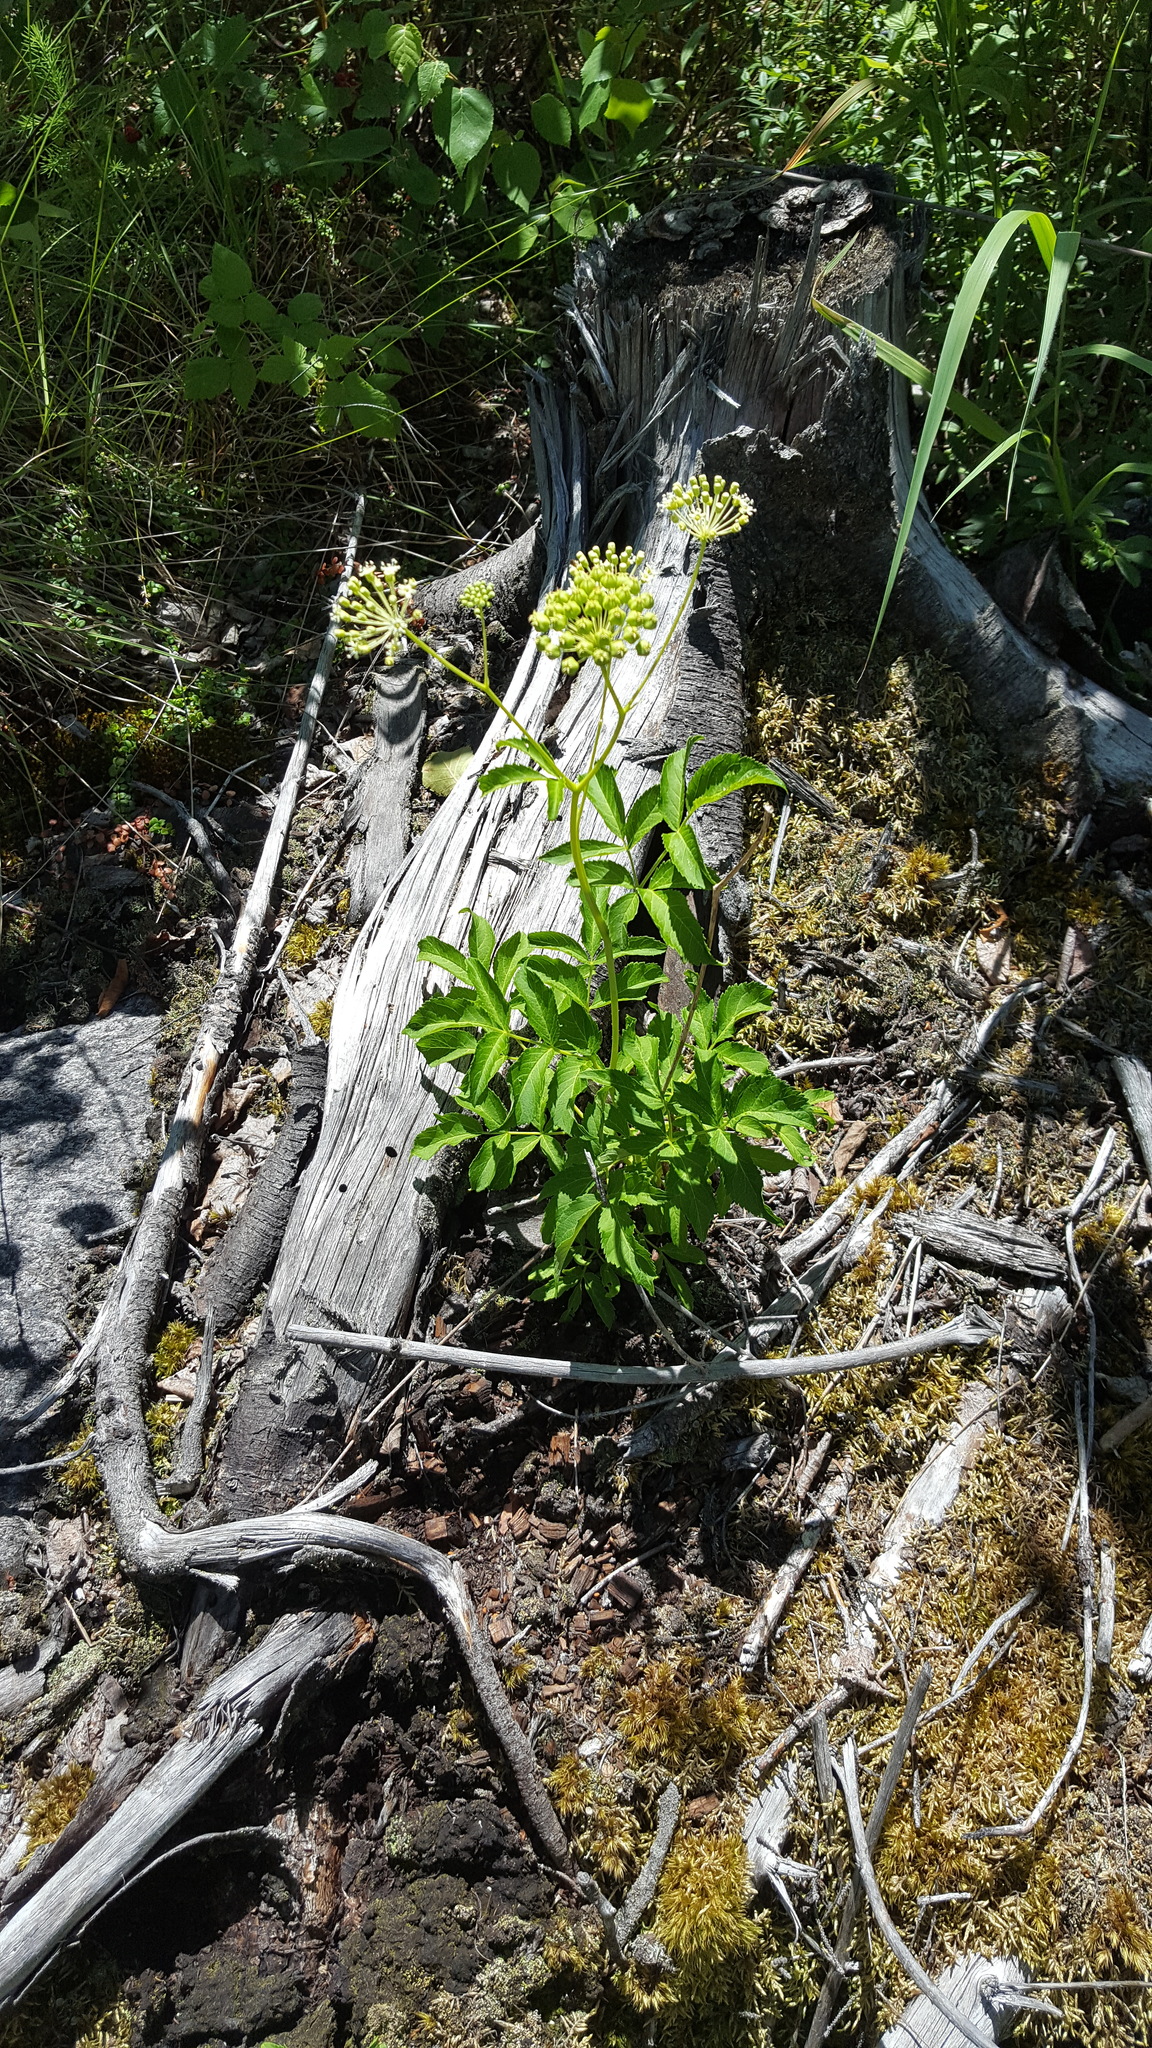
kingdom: Plantae
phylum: Tracheophyta
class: Magnoliopsida
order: Apiales
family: Araliaceae
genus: Aralia
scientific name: Aralia hispida
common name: Bristly sarsaparilla
